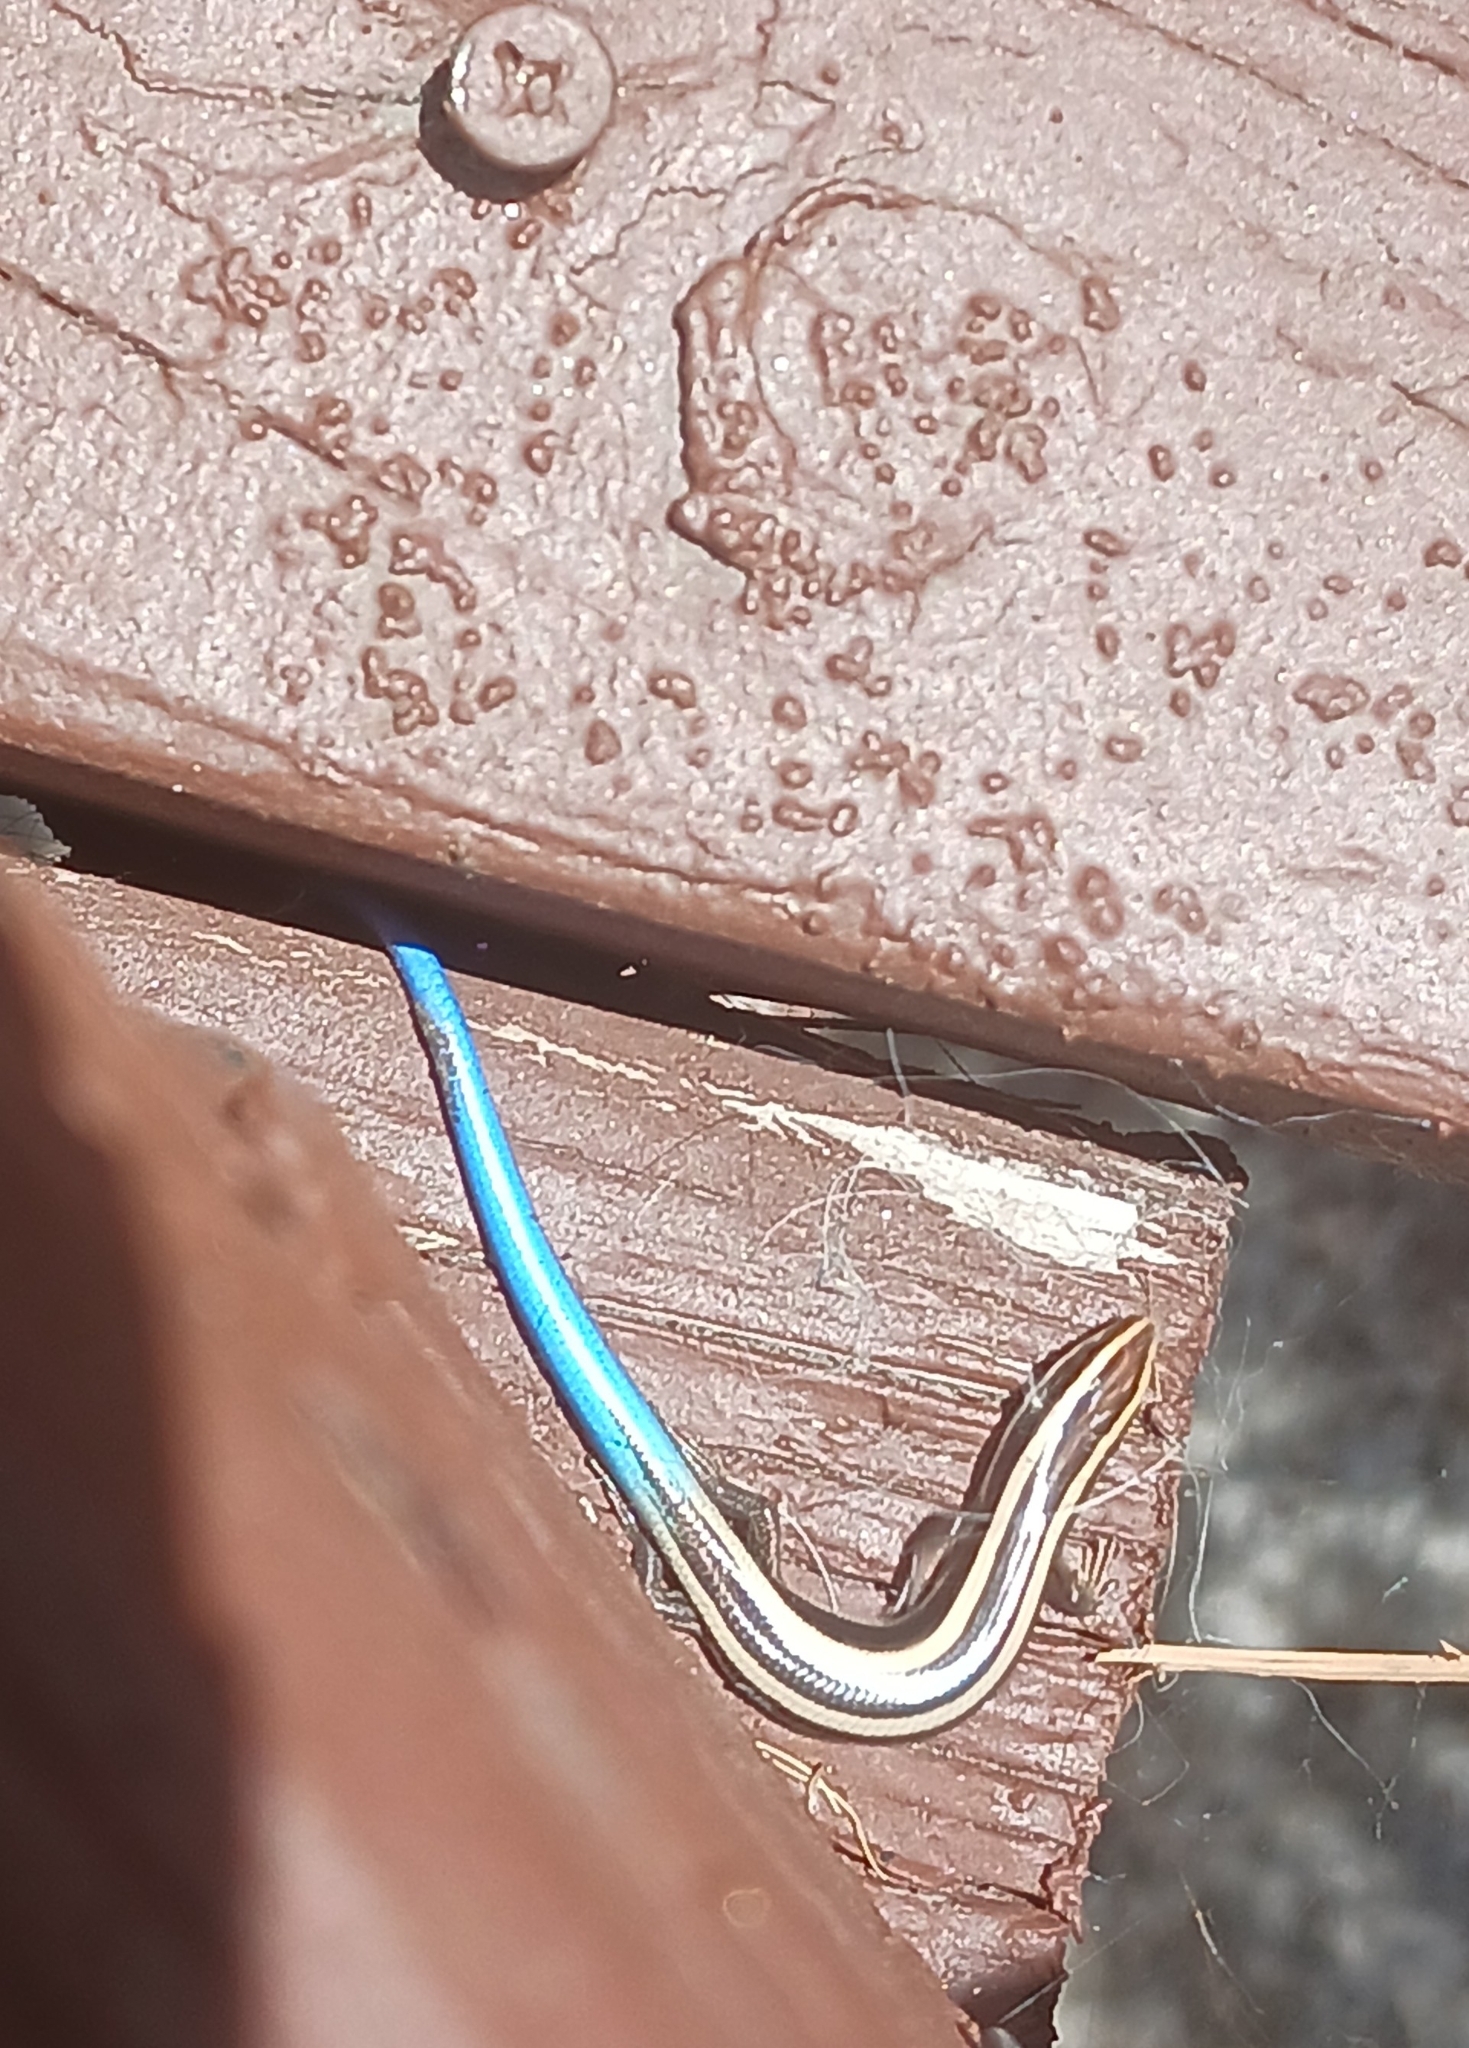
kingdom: Animalia
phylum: Chordata
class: Squamata
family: Scincidae
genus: Plestiodon
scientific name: Plestiodon skiltonianus
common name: Coronado island skink [interparietalis]
